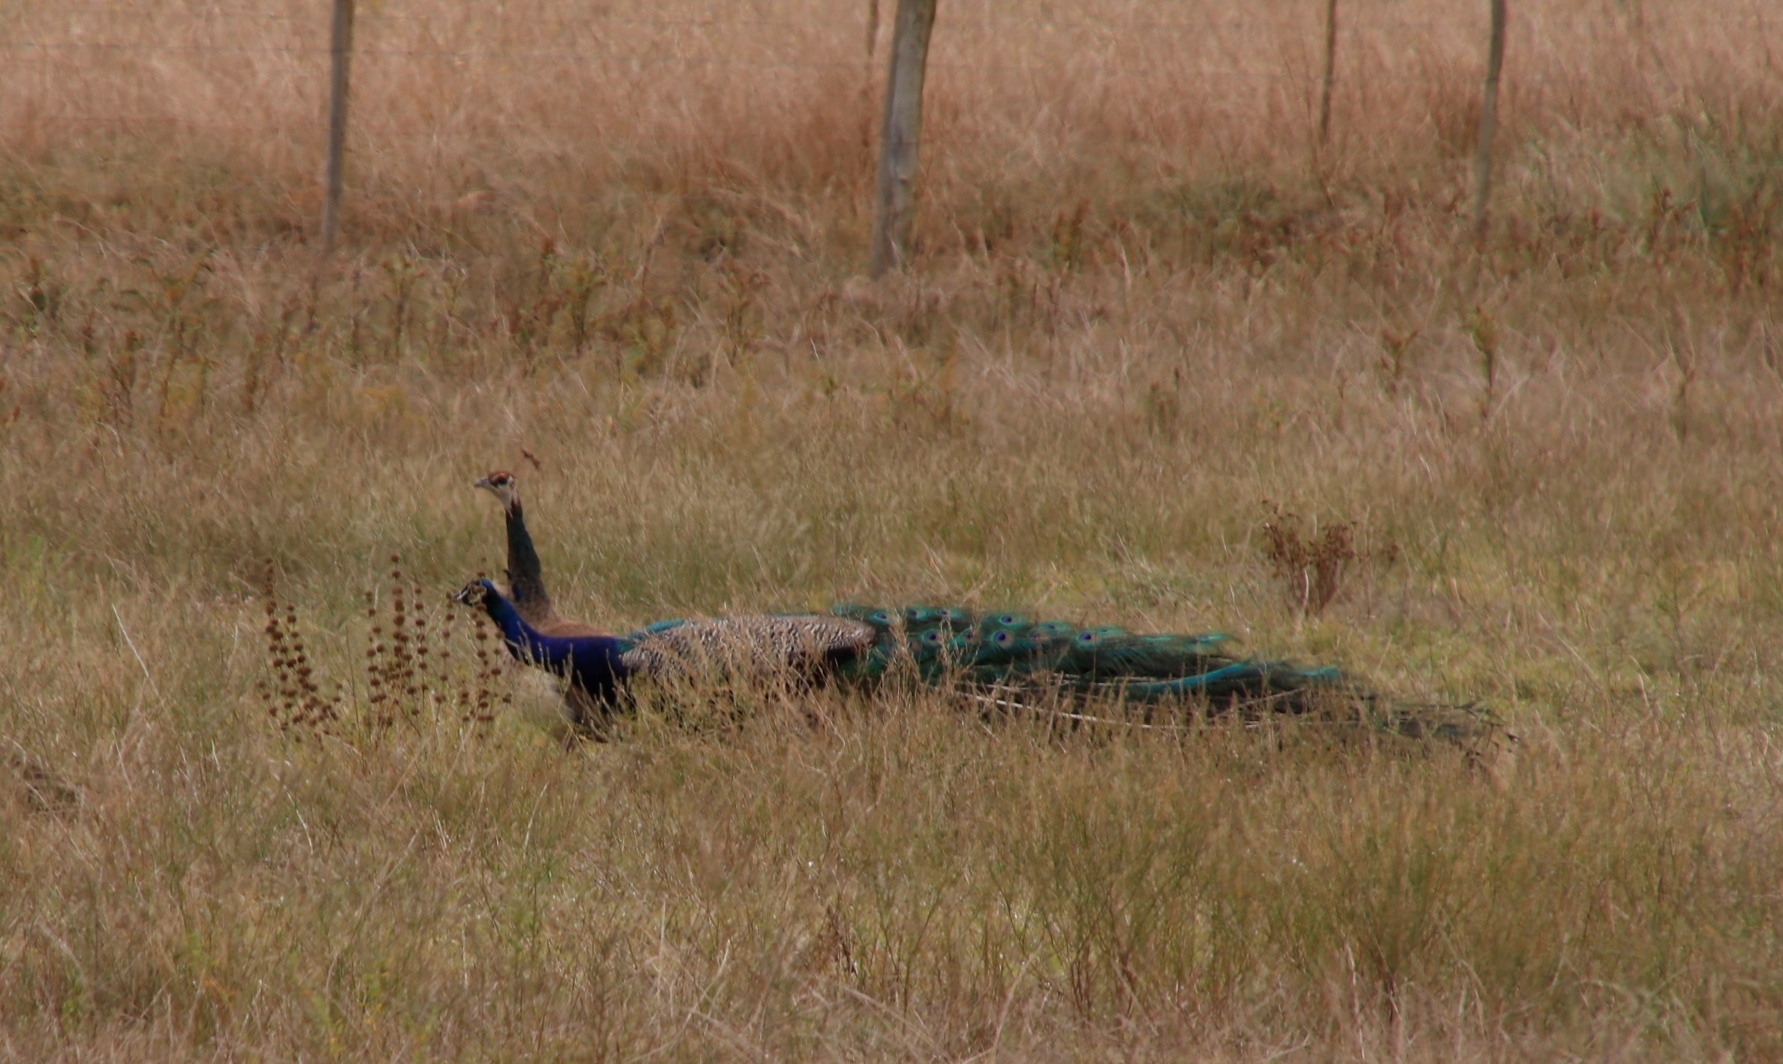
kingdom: Animalia
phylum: Chordata
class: Aves
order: Galliformes
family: Phasianidae
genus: Pavo
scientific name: Pavo cristatus
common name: Indian peafowl
